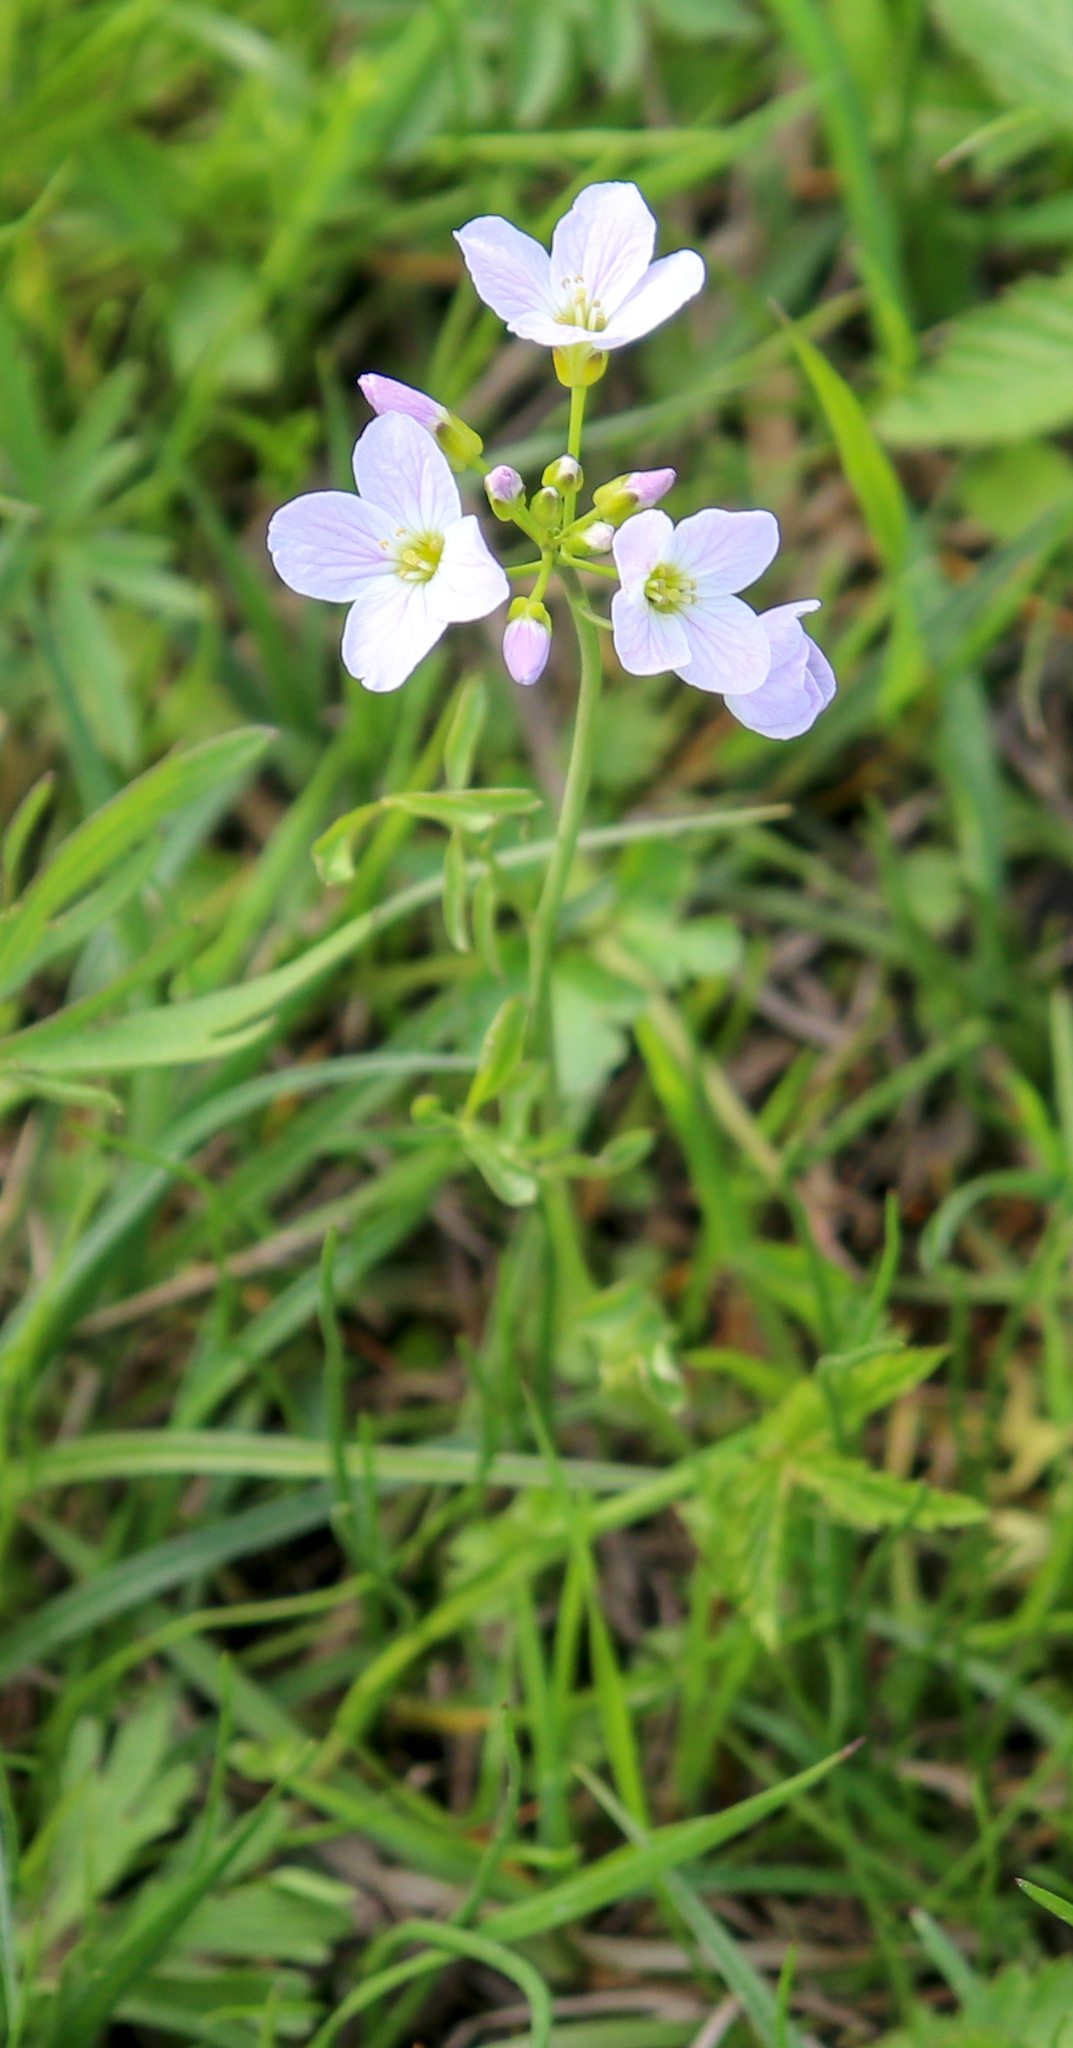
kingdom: Plantae
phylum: Tracheophyta
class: Magnoliopsida
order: Brassicales
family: Brassicaceae
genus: Cardamine
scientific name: Cardamine dentata
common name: Toothed bittercress
